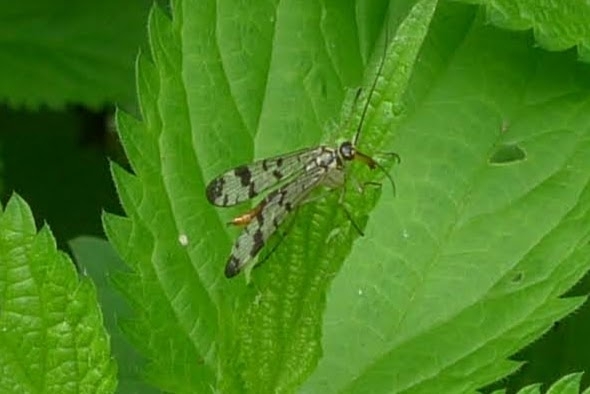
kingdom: Animalia
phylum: Arthropoda
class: Insecta
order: Mecoptera
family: Panorpidae
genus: Panorpa
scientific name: Panorpa communis
